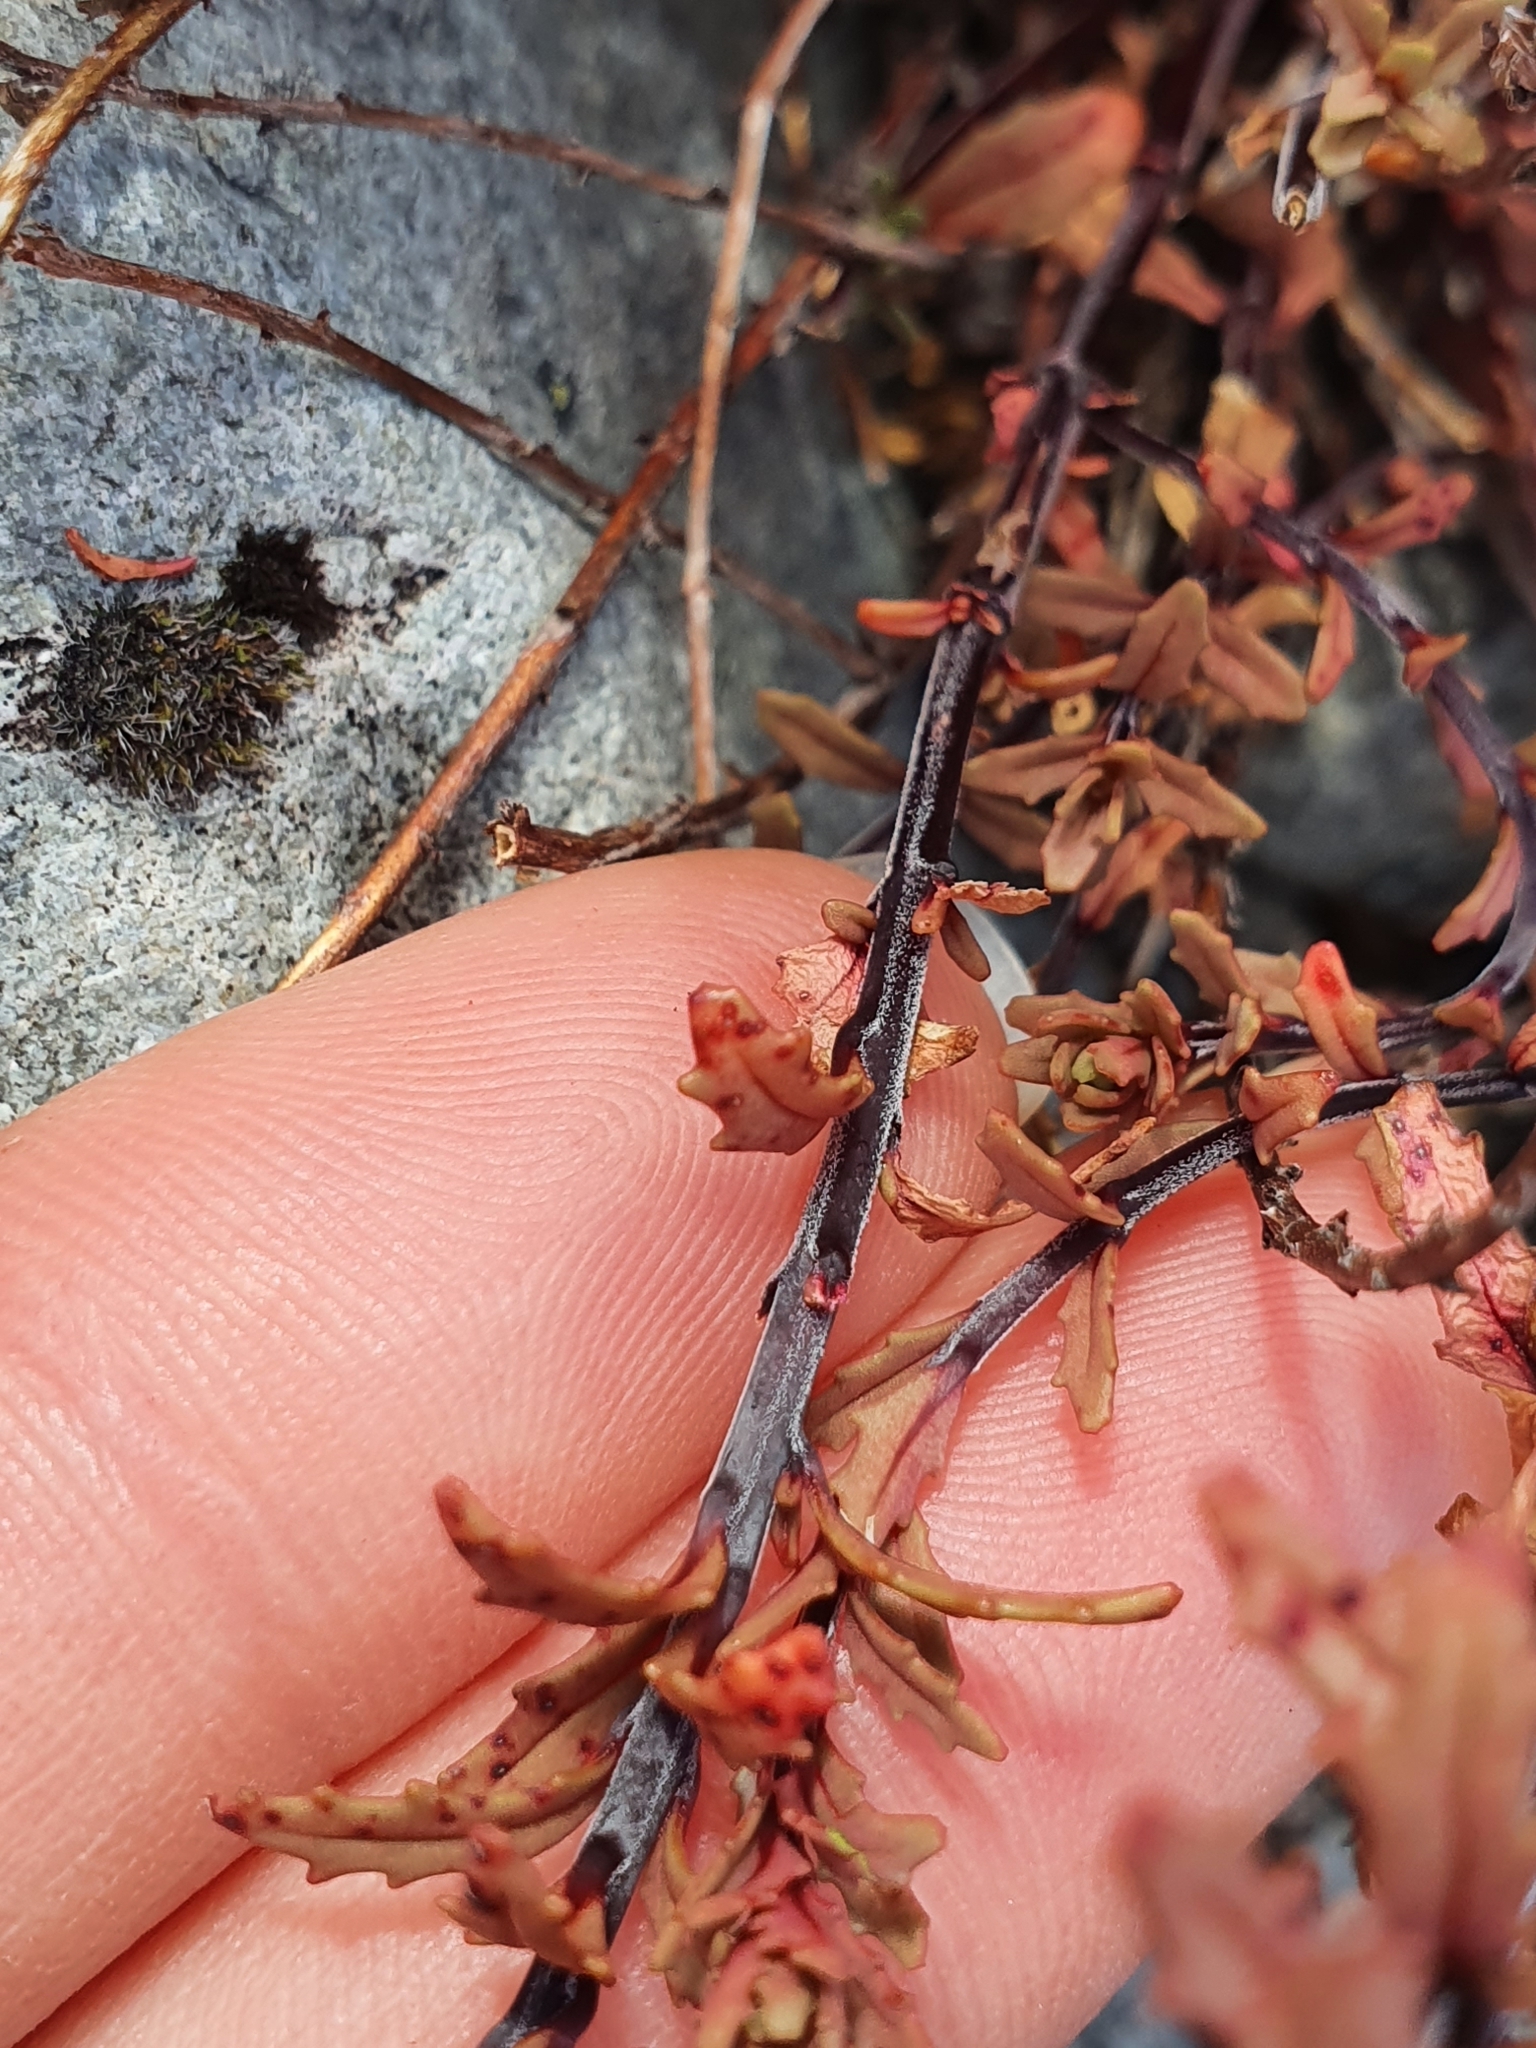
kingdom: Plantae
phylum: Tracheophyta
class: Magnoliopsida
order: Myrtales
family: Onagraceae
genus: Epilobium
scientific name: Epilobium melanocaulon
